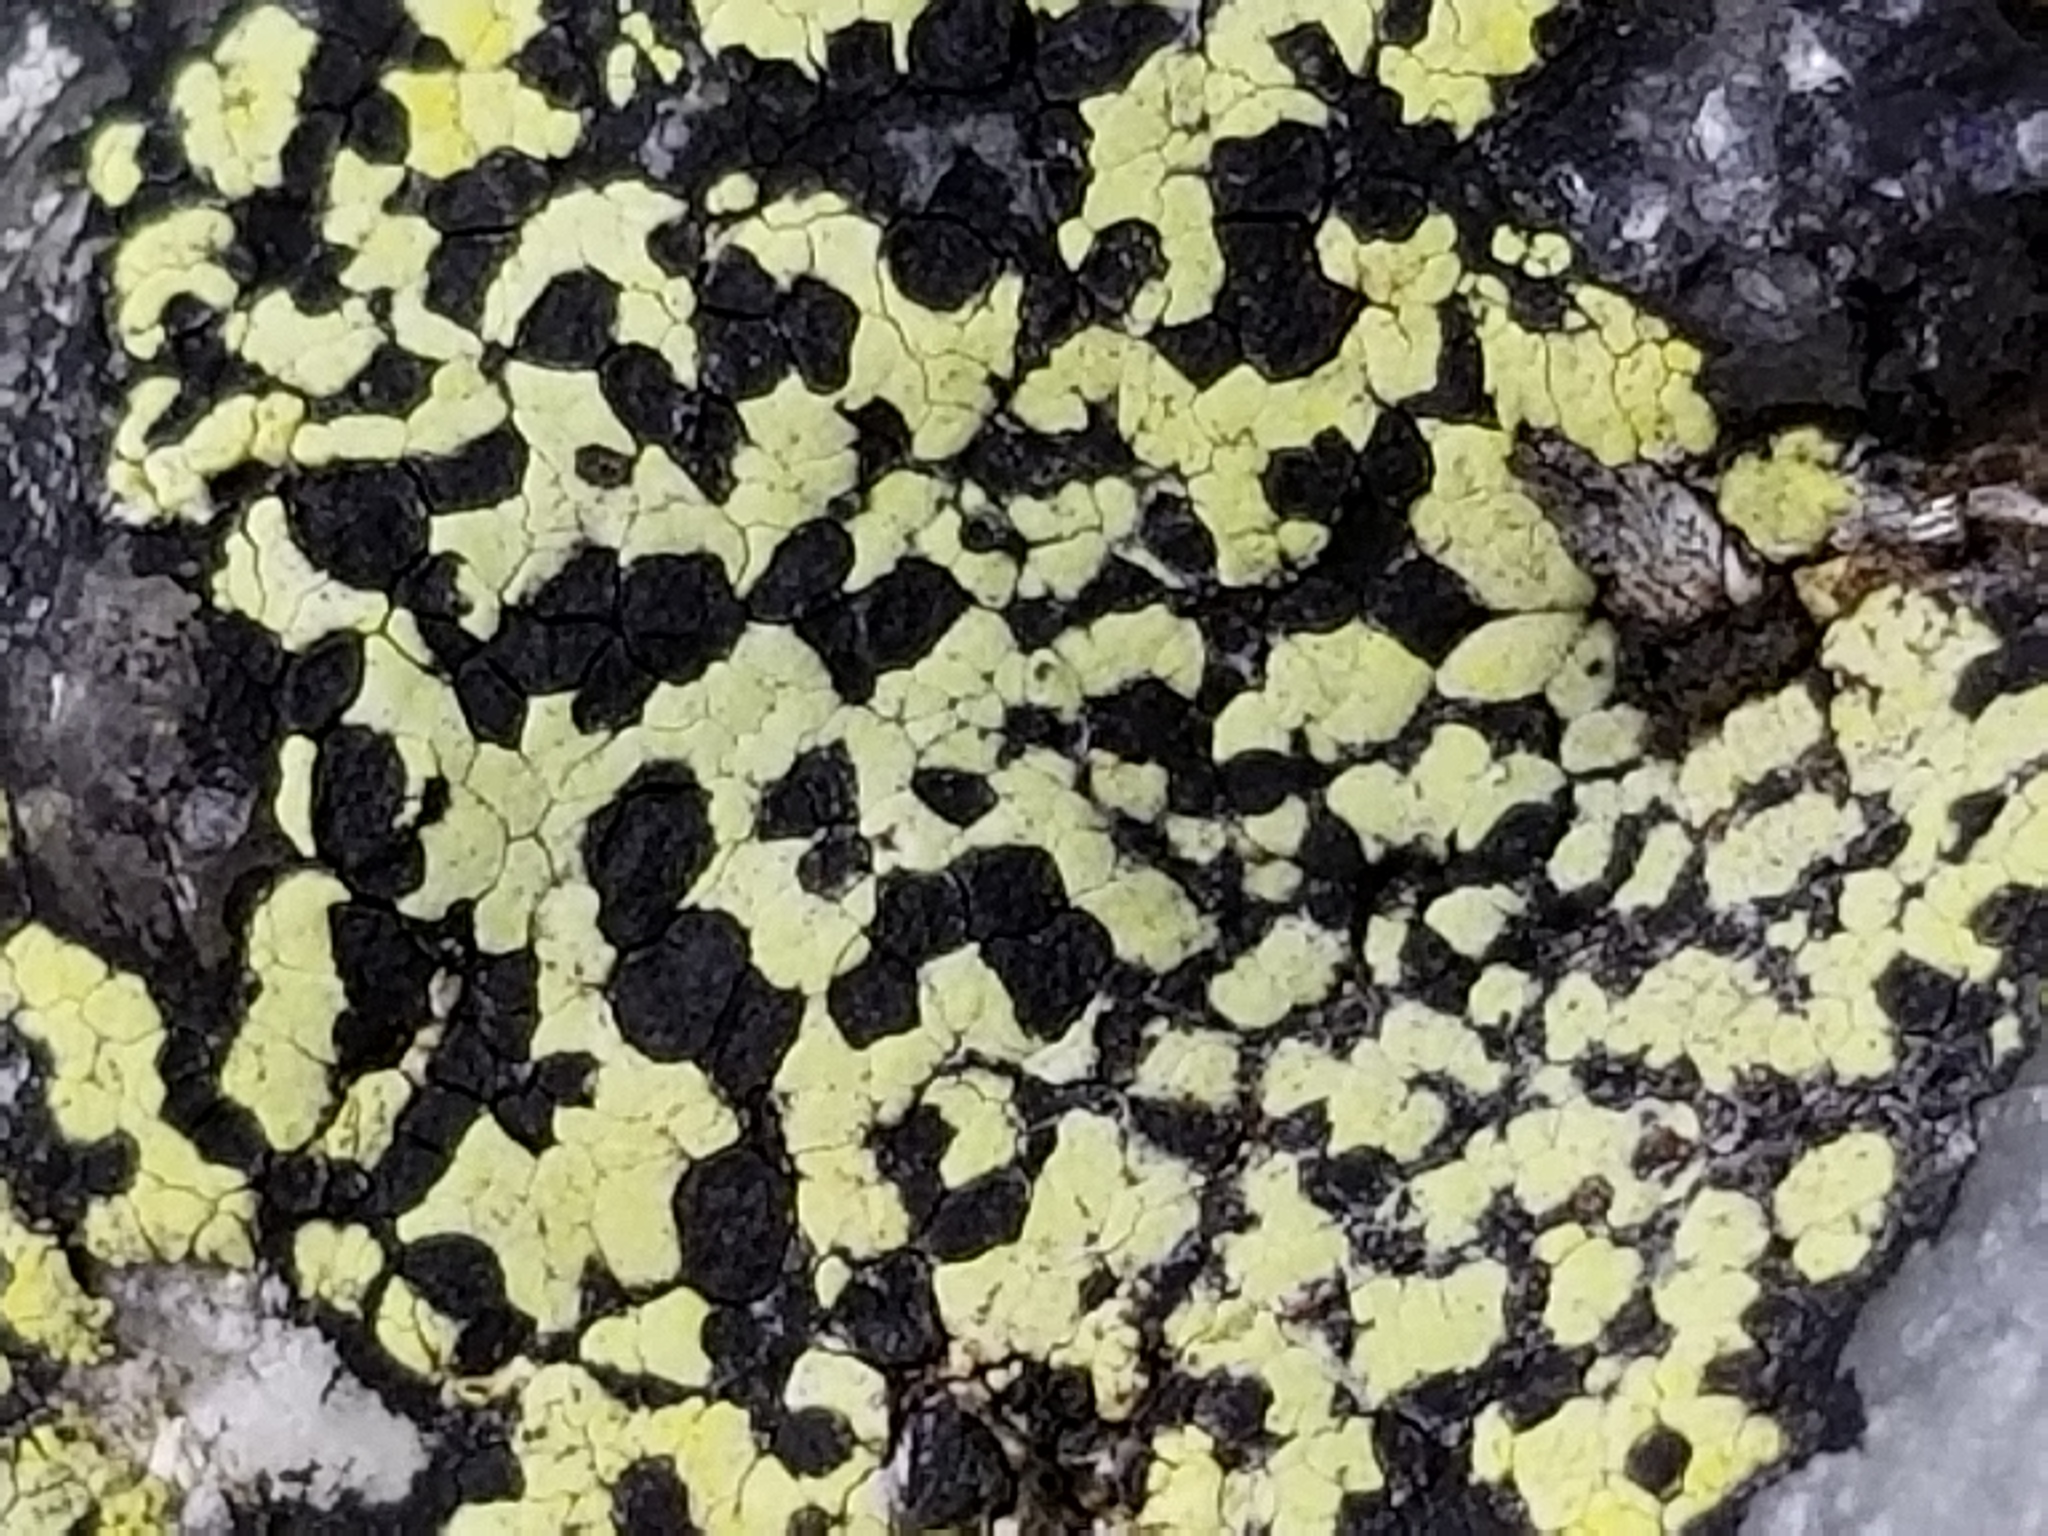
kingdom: Fungi
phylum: Ascomycota
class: Lecanoromycetes
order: Rhizocarpales
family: Rhizocarpaceae
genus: Rhizocarpon
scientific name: Rhizocarpon geographicum
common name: Yellow map lichen
